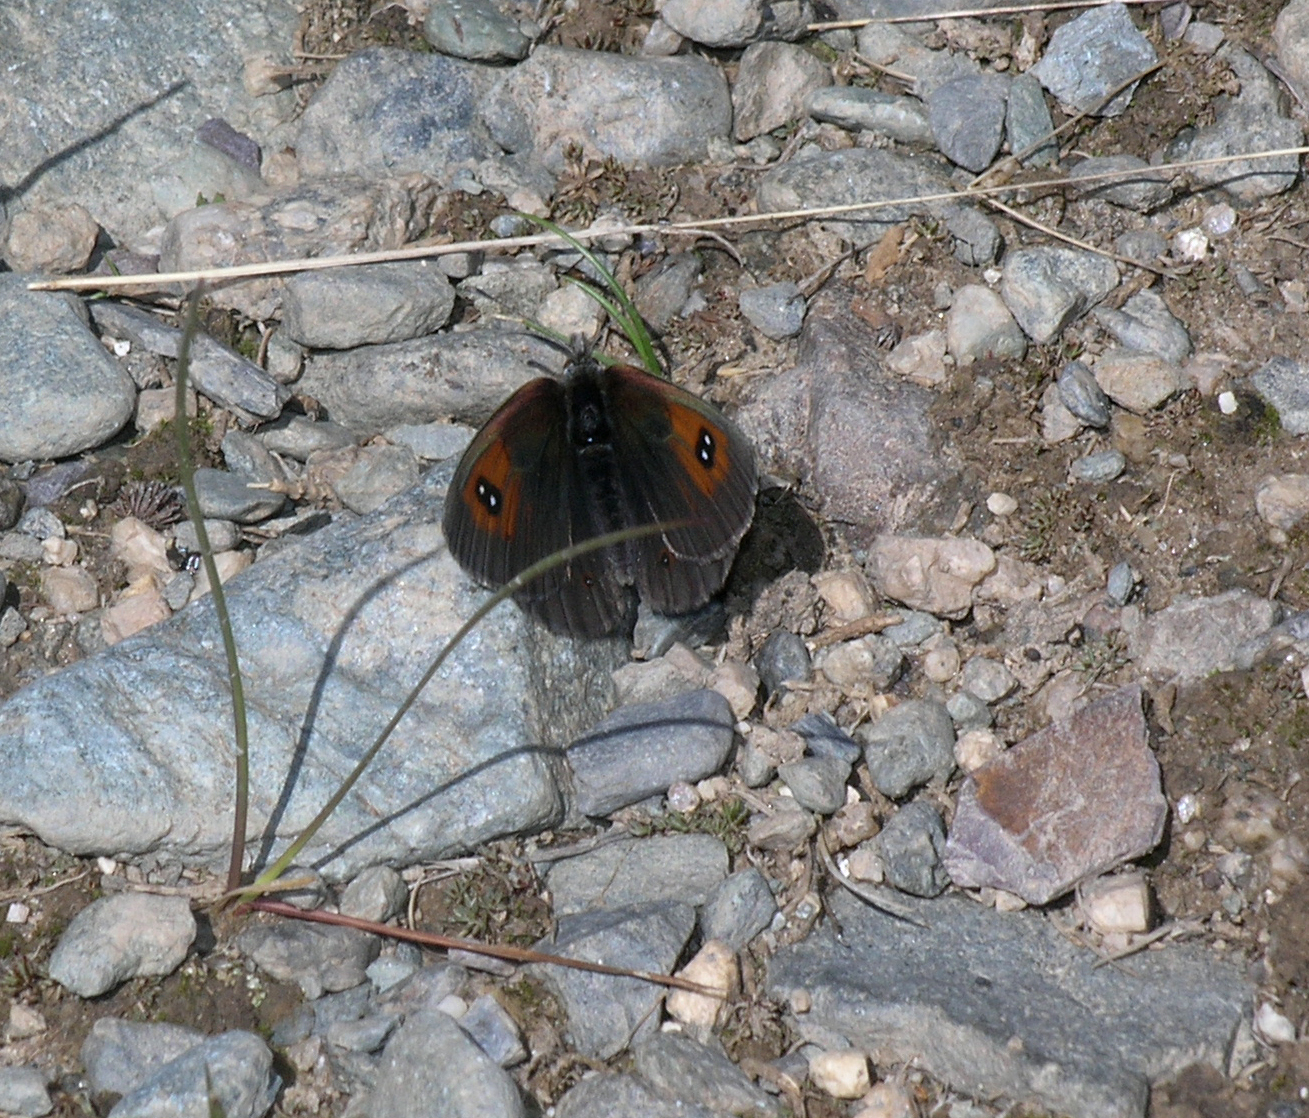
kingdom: Animalia
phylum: Arthropoda
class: Insecta
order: Lepidoptera
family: Nymphalidae
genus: Erebia
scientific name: Erebia tyndarus
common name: Swiss brassy ringlet
